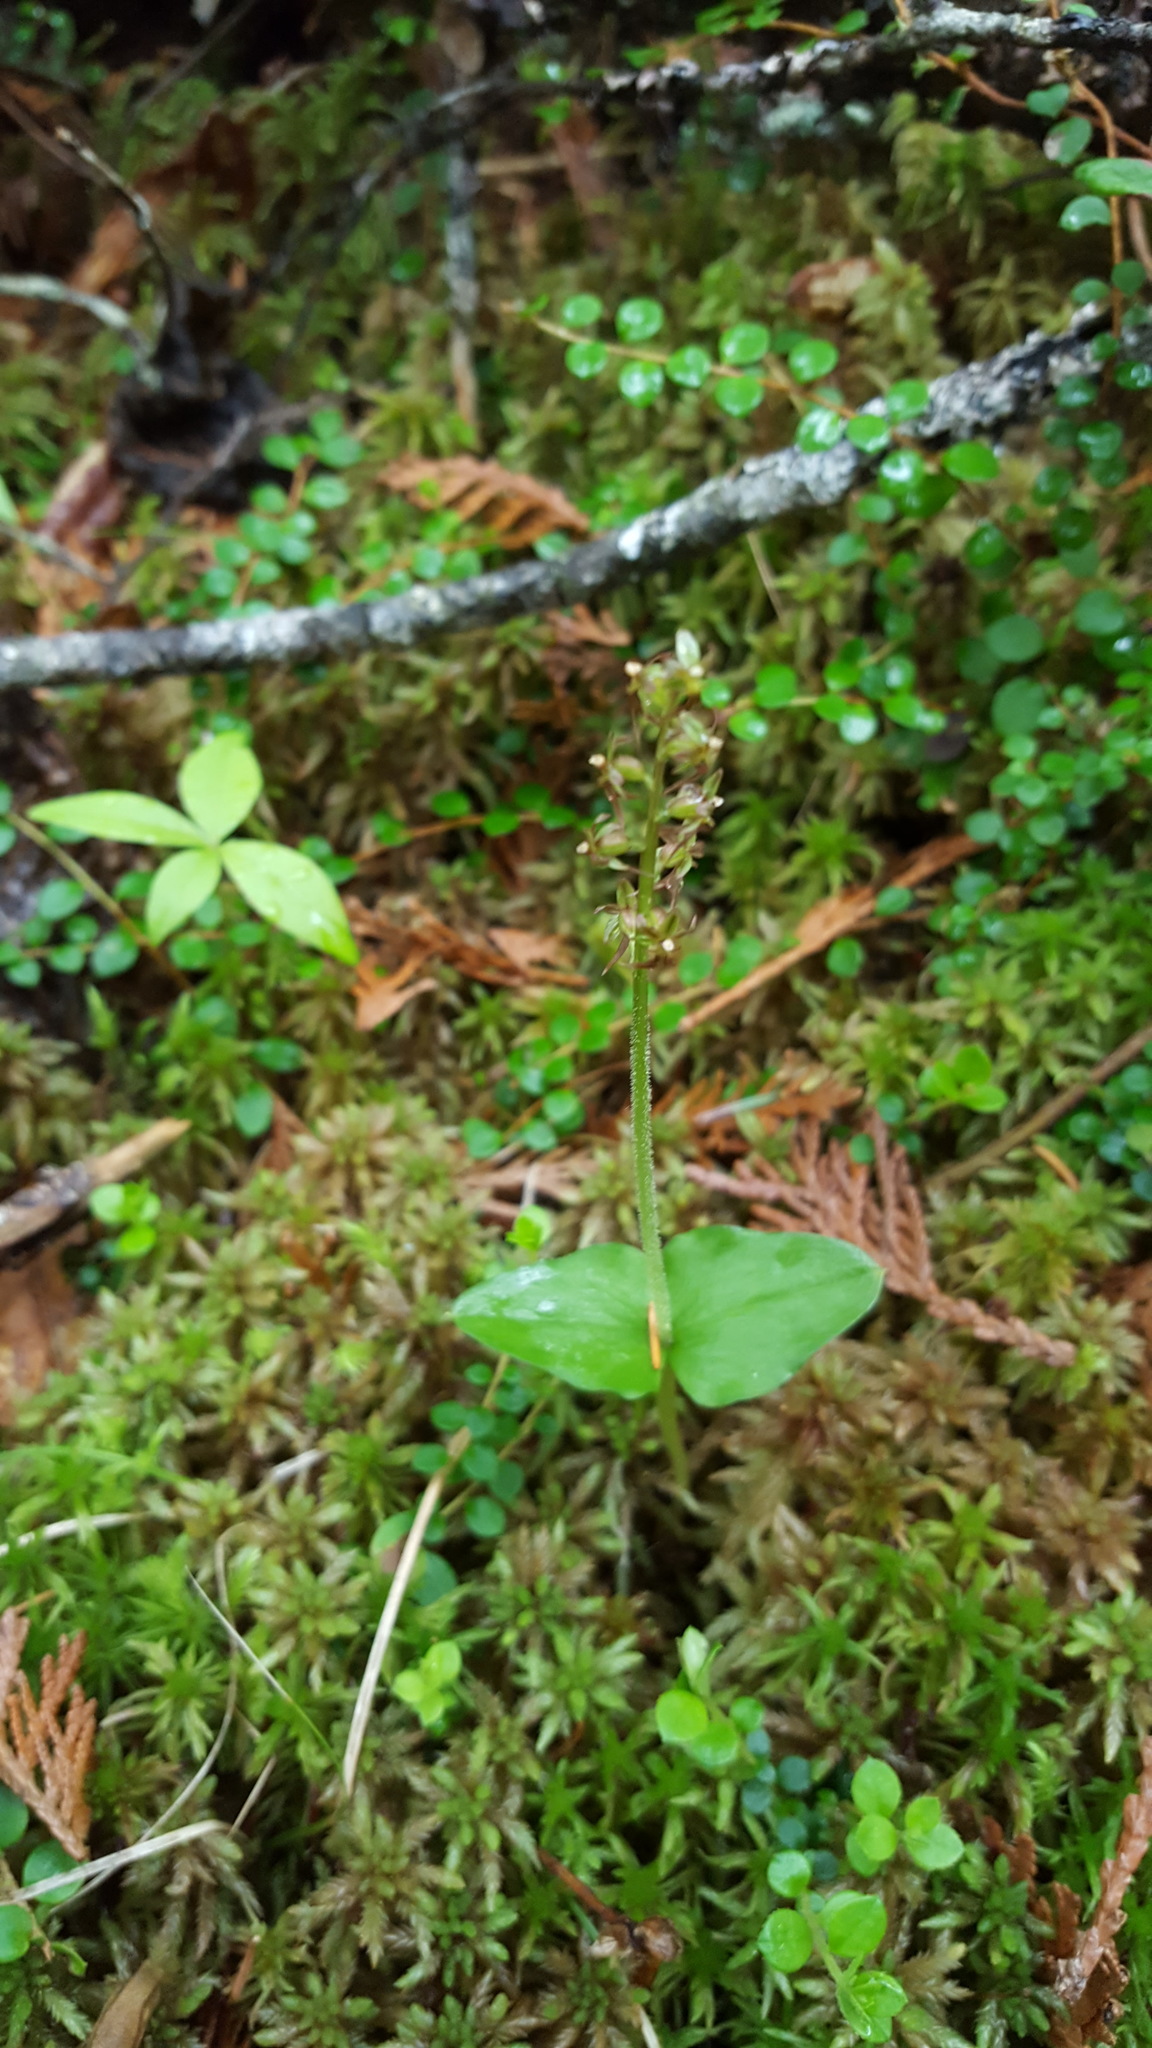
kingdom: Plantae
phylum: Tracheophyta
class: Liliopsida
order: Asparagales
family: Orchidaceae
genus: Neottia
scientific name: Neottia cordata
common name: Lesser twayblade
